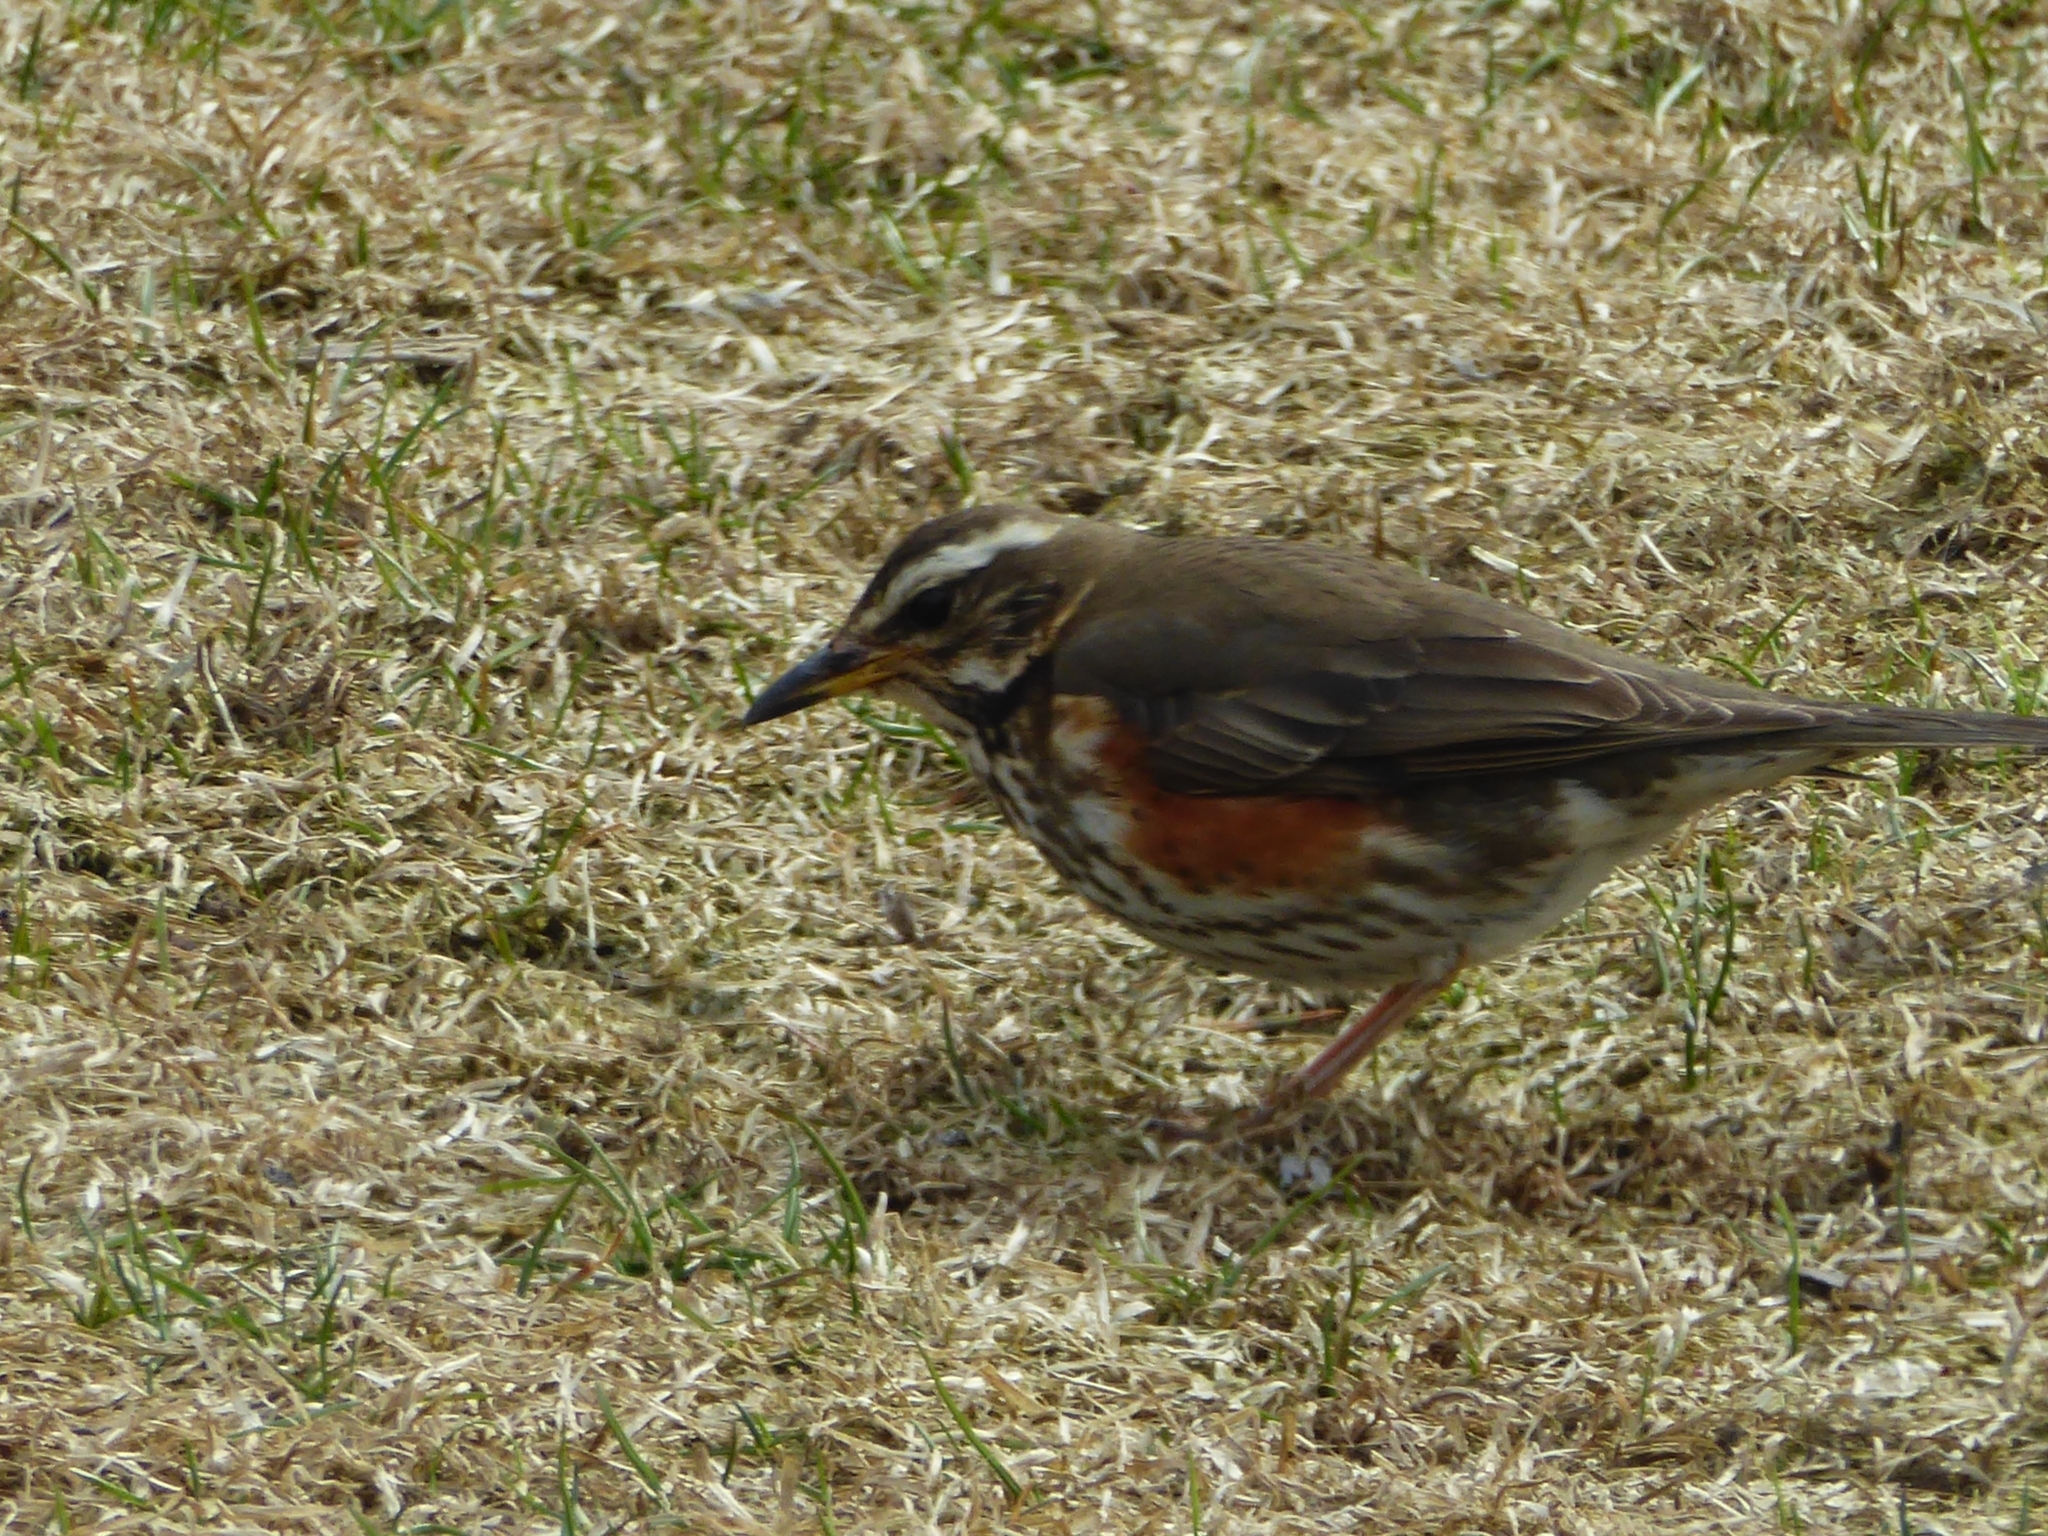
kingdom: Animalia
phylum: Chordata
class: Aves
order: Passeriformes
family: Turdidae
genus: Turdus
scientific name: Turdus iliacus
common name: Redwing
